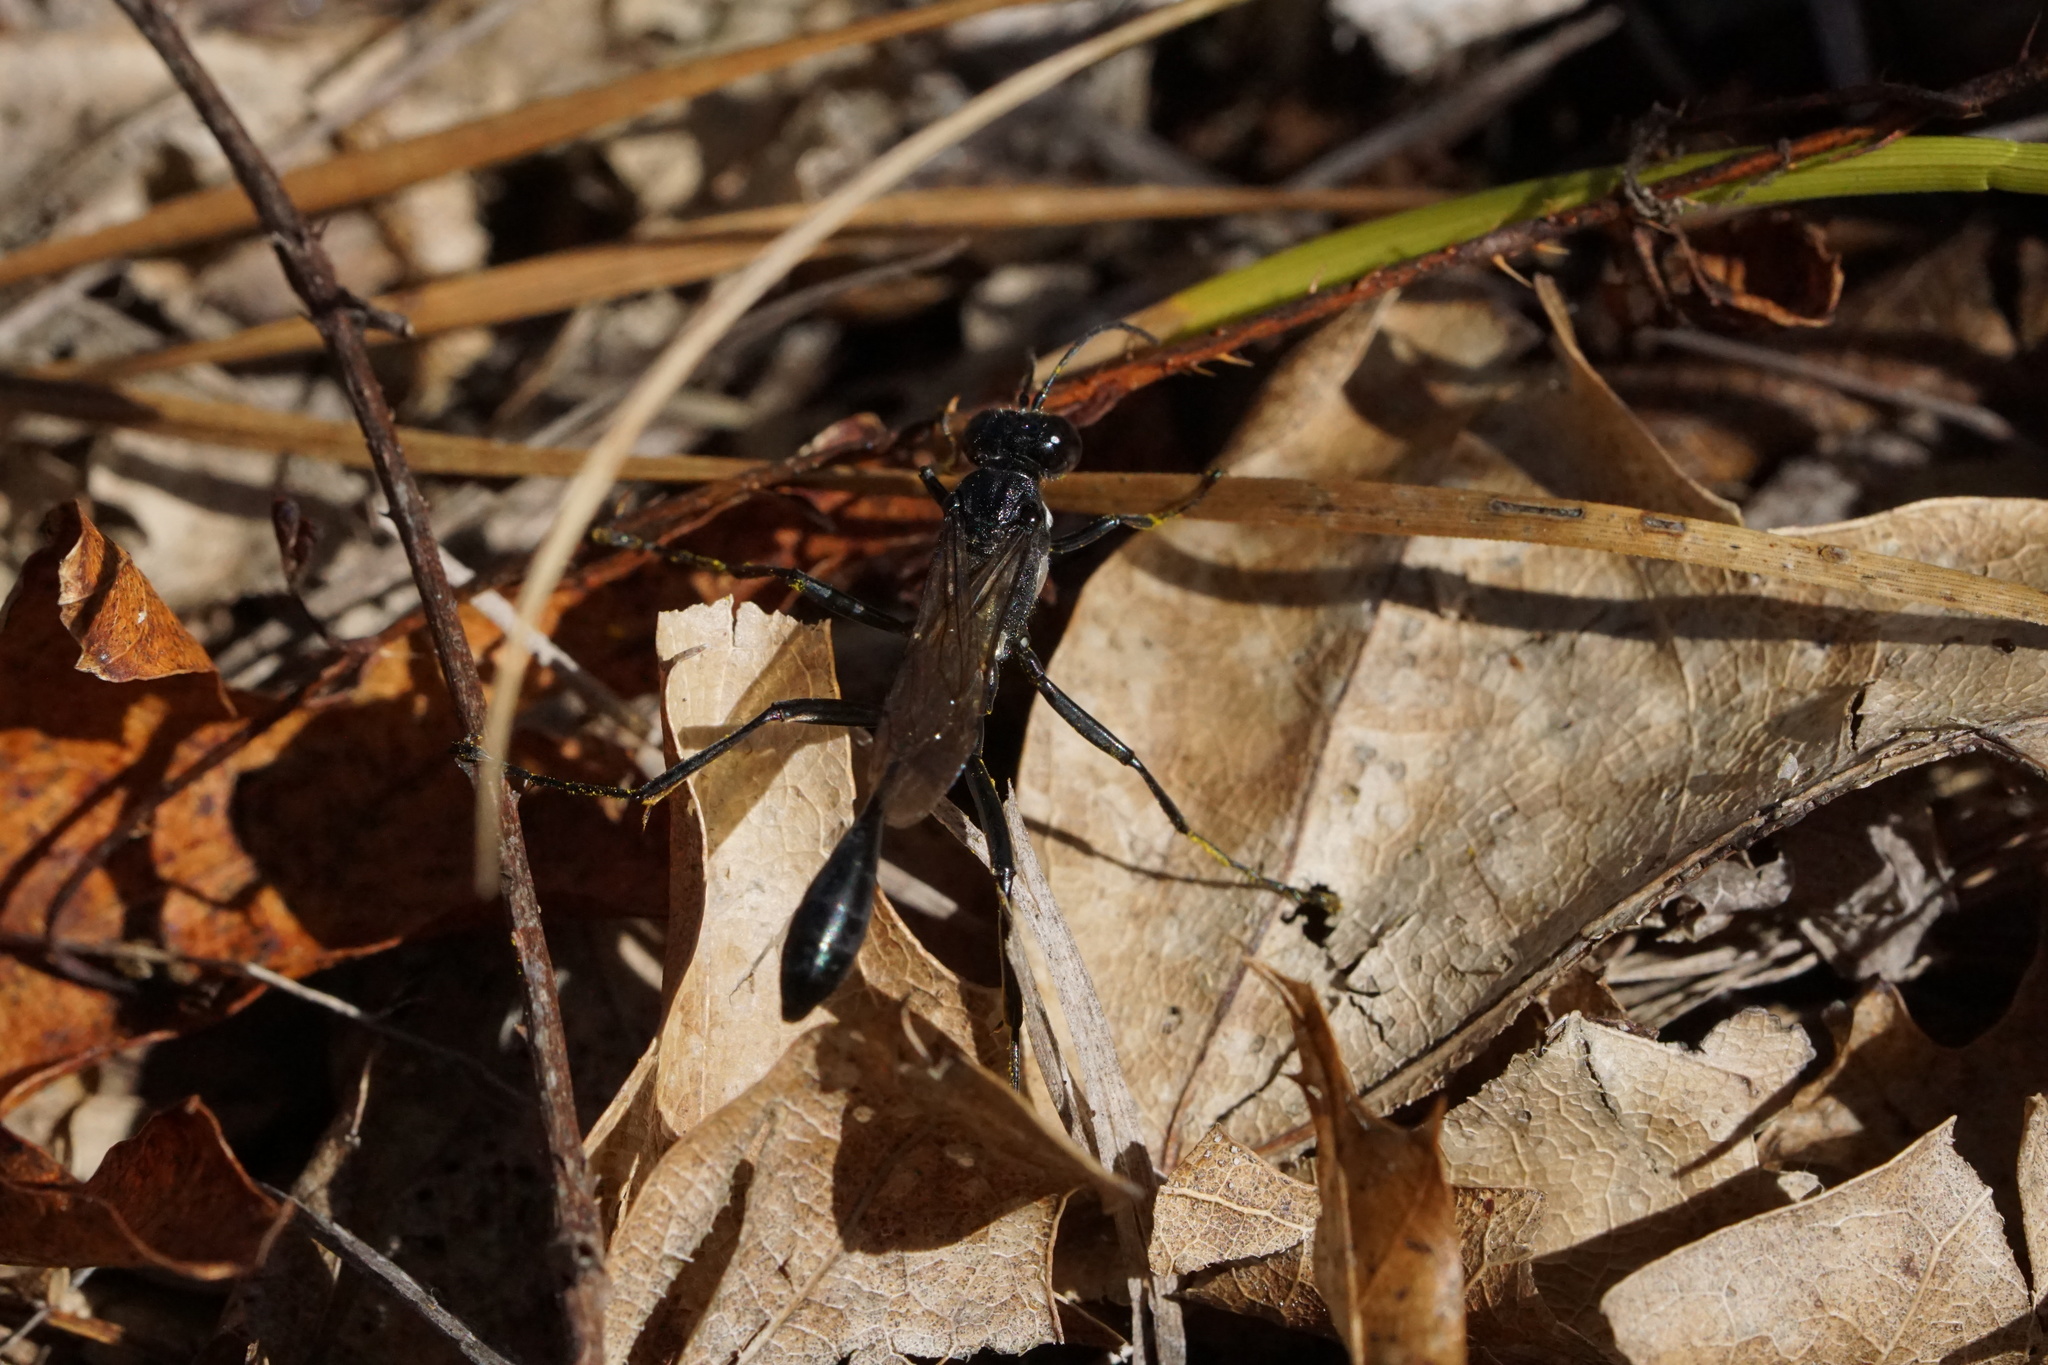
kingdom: Animalia
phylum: Arthropoda
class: Insecta
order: Hymenoptera
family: Sphecidae
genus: Eremnophila
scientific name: Eremnophila aureonotata
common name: Gold-marked thread-waisted wasp
